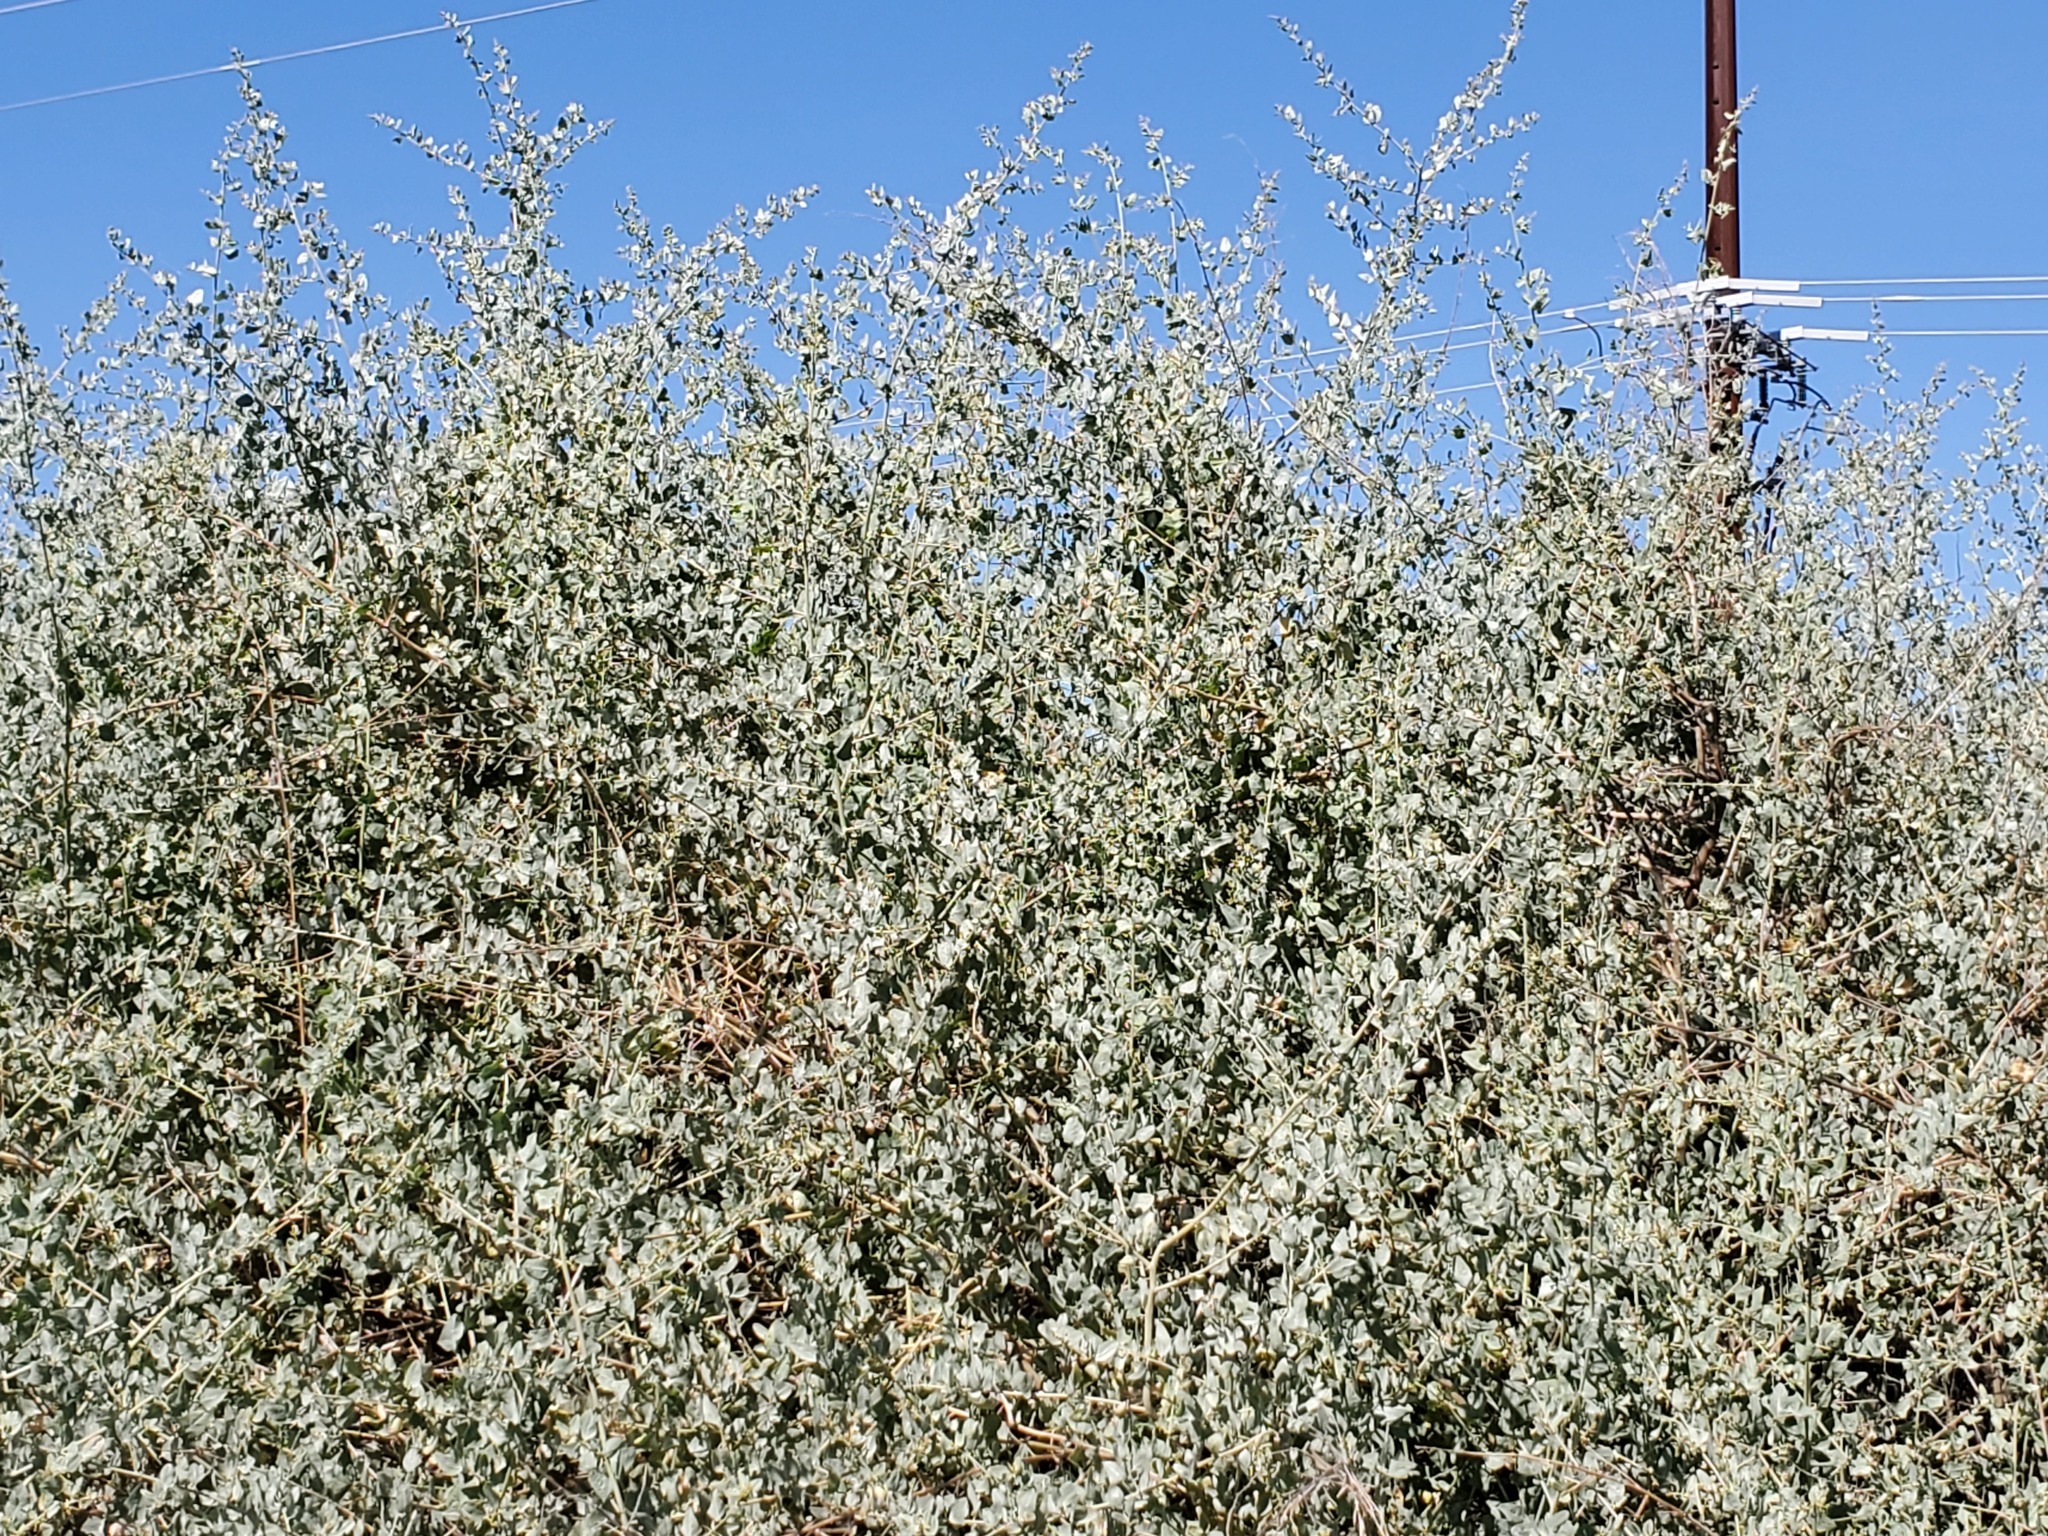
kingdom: Plantae
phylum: Tracheophyta
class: Magnoliopsida
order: Caryophyllales
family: Amaranthaceae
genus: Atriplex
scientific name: Atriplex lentiformis
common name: Big saltbush
